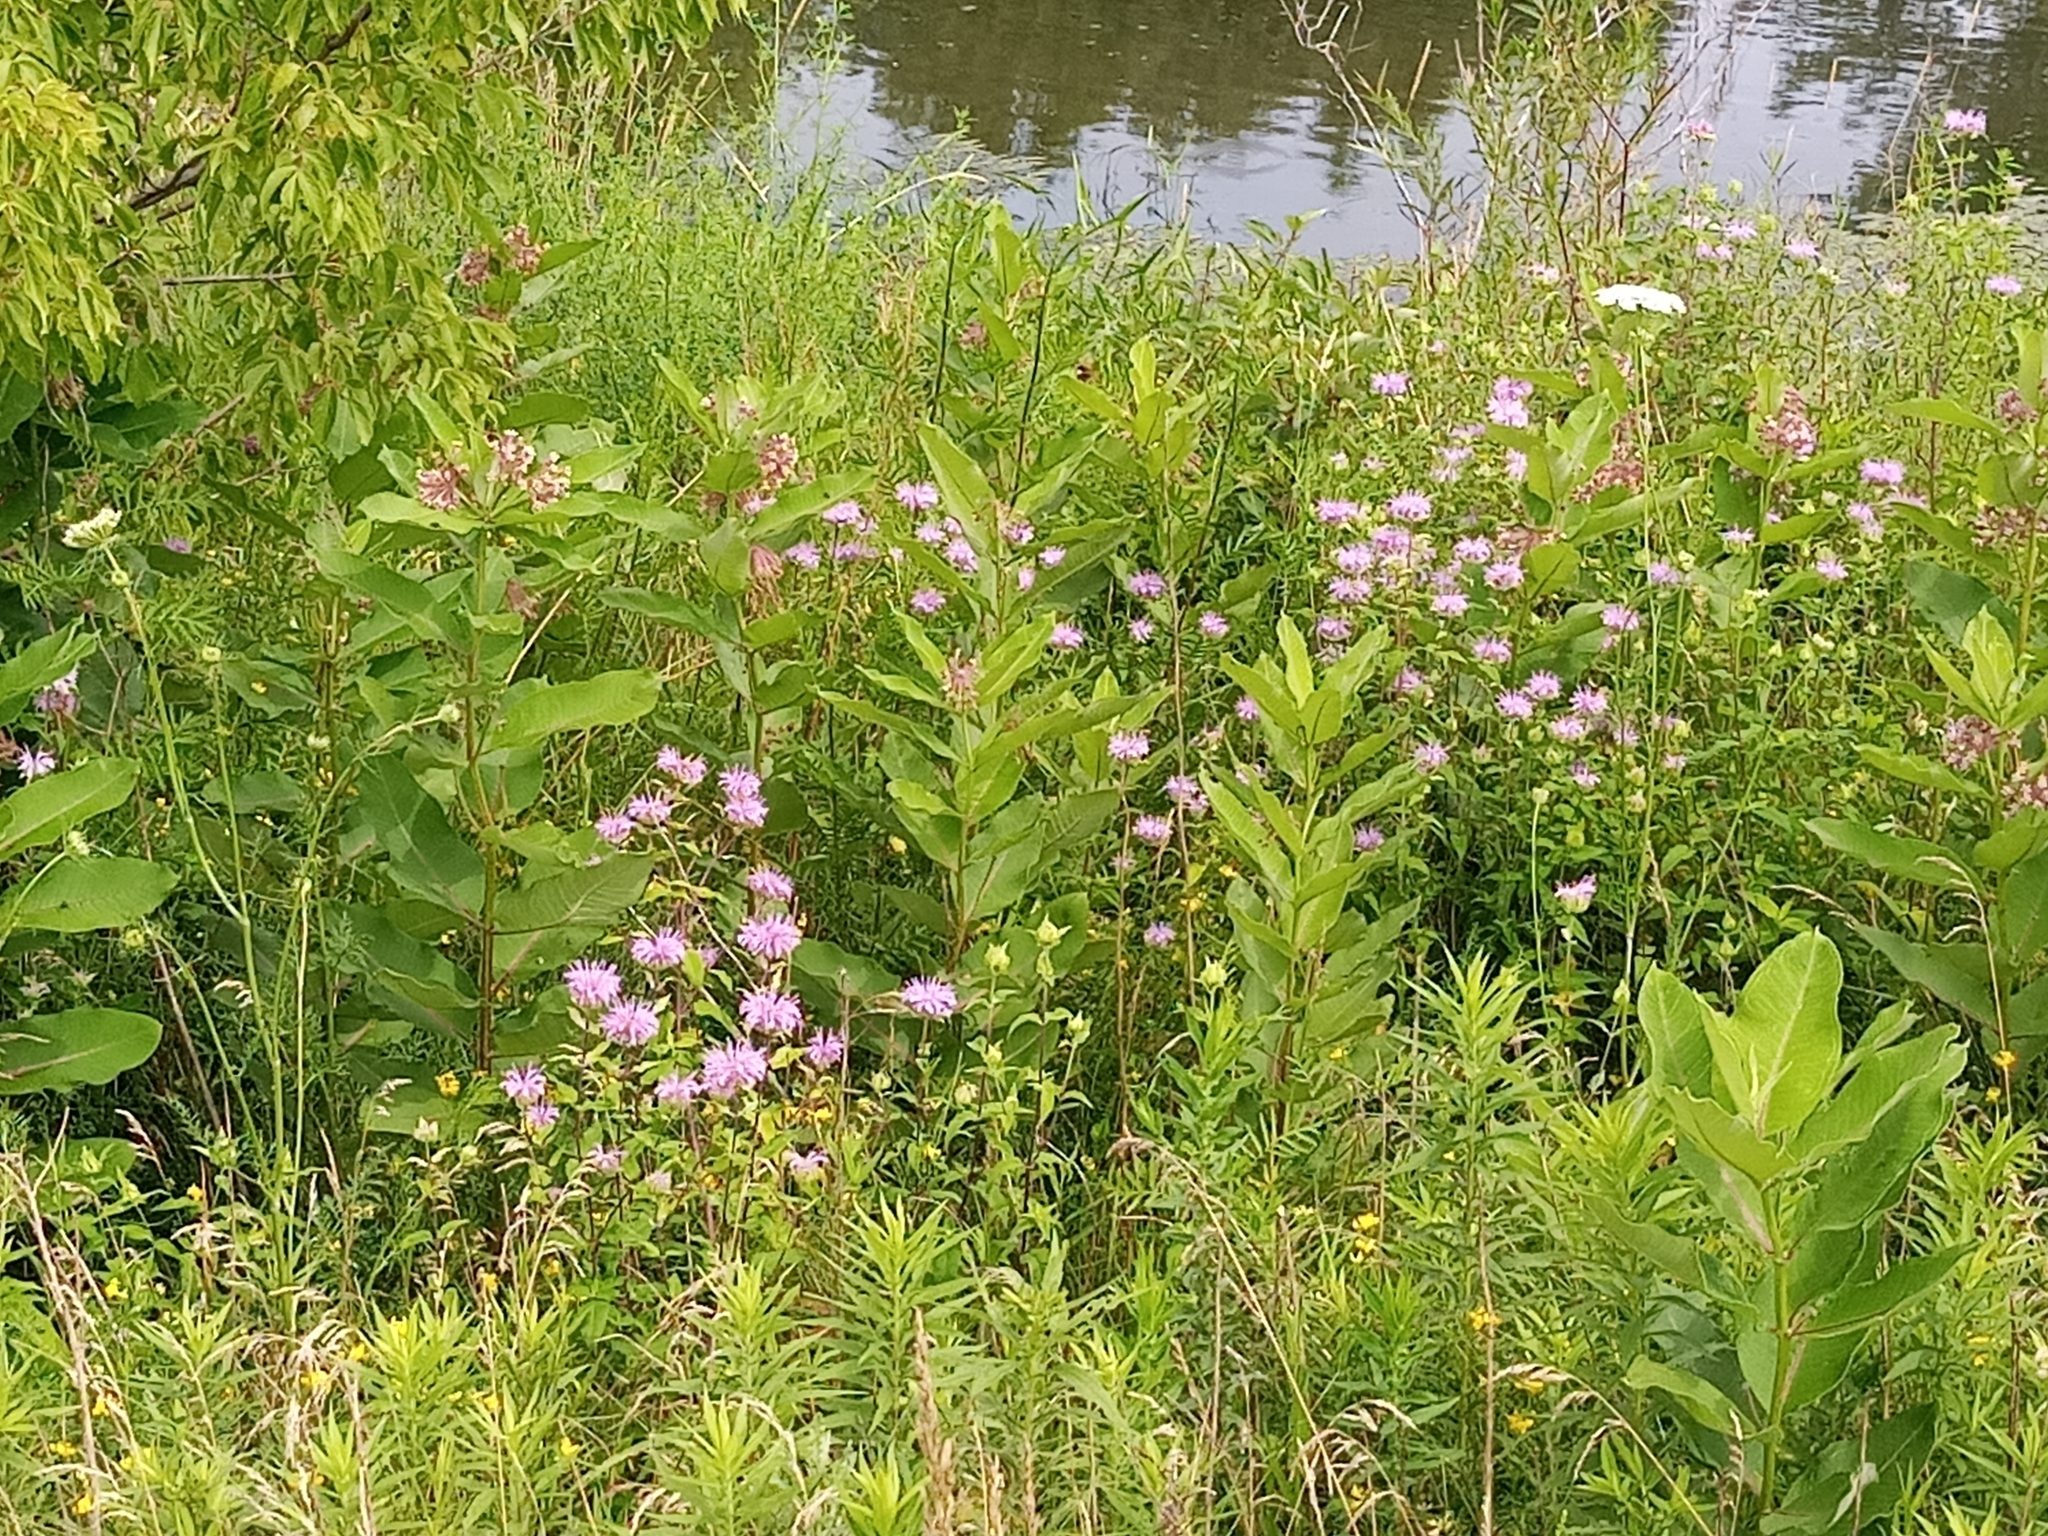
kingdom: Plantae
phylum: Tracheophyta
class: Magnoliopsida
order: Lamiales
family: Lamiaceae
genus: Monarda
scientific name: Monarda fistulosa
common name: Purple beebalm
